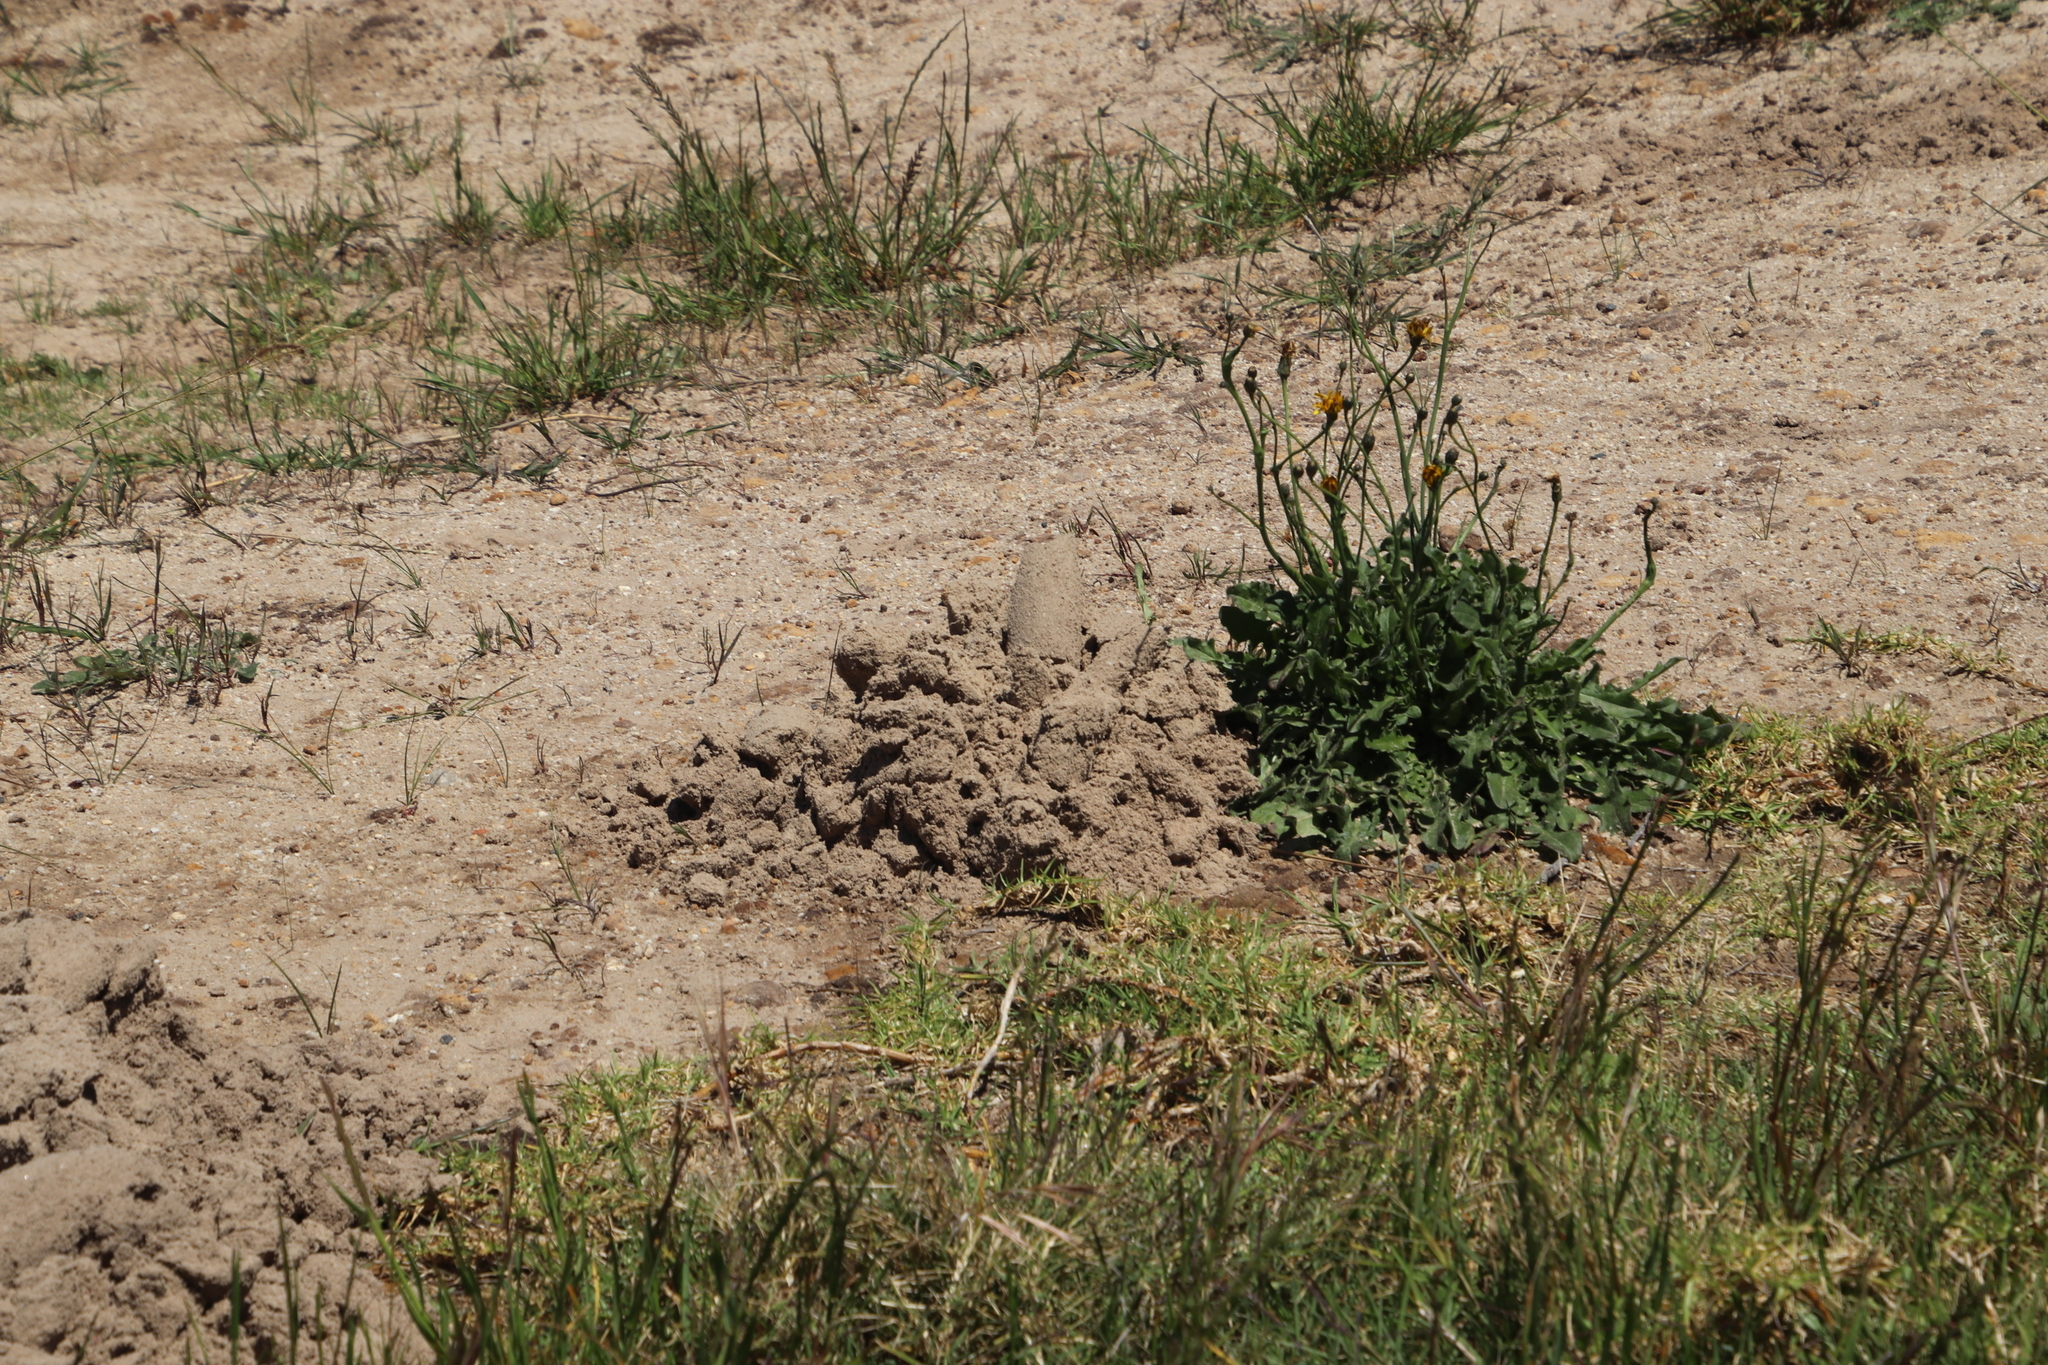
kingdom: Animalia
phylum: Chordata
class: Mammalia
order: Rodentia
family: Bathyergidae
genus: Bathyergus
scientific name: Bathyergus suillus
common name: Cape dune mole rat
